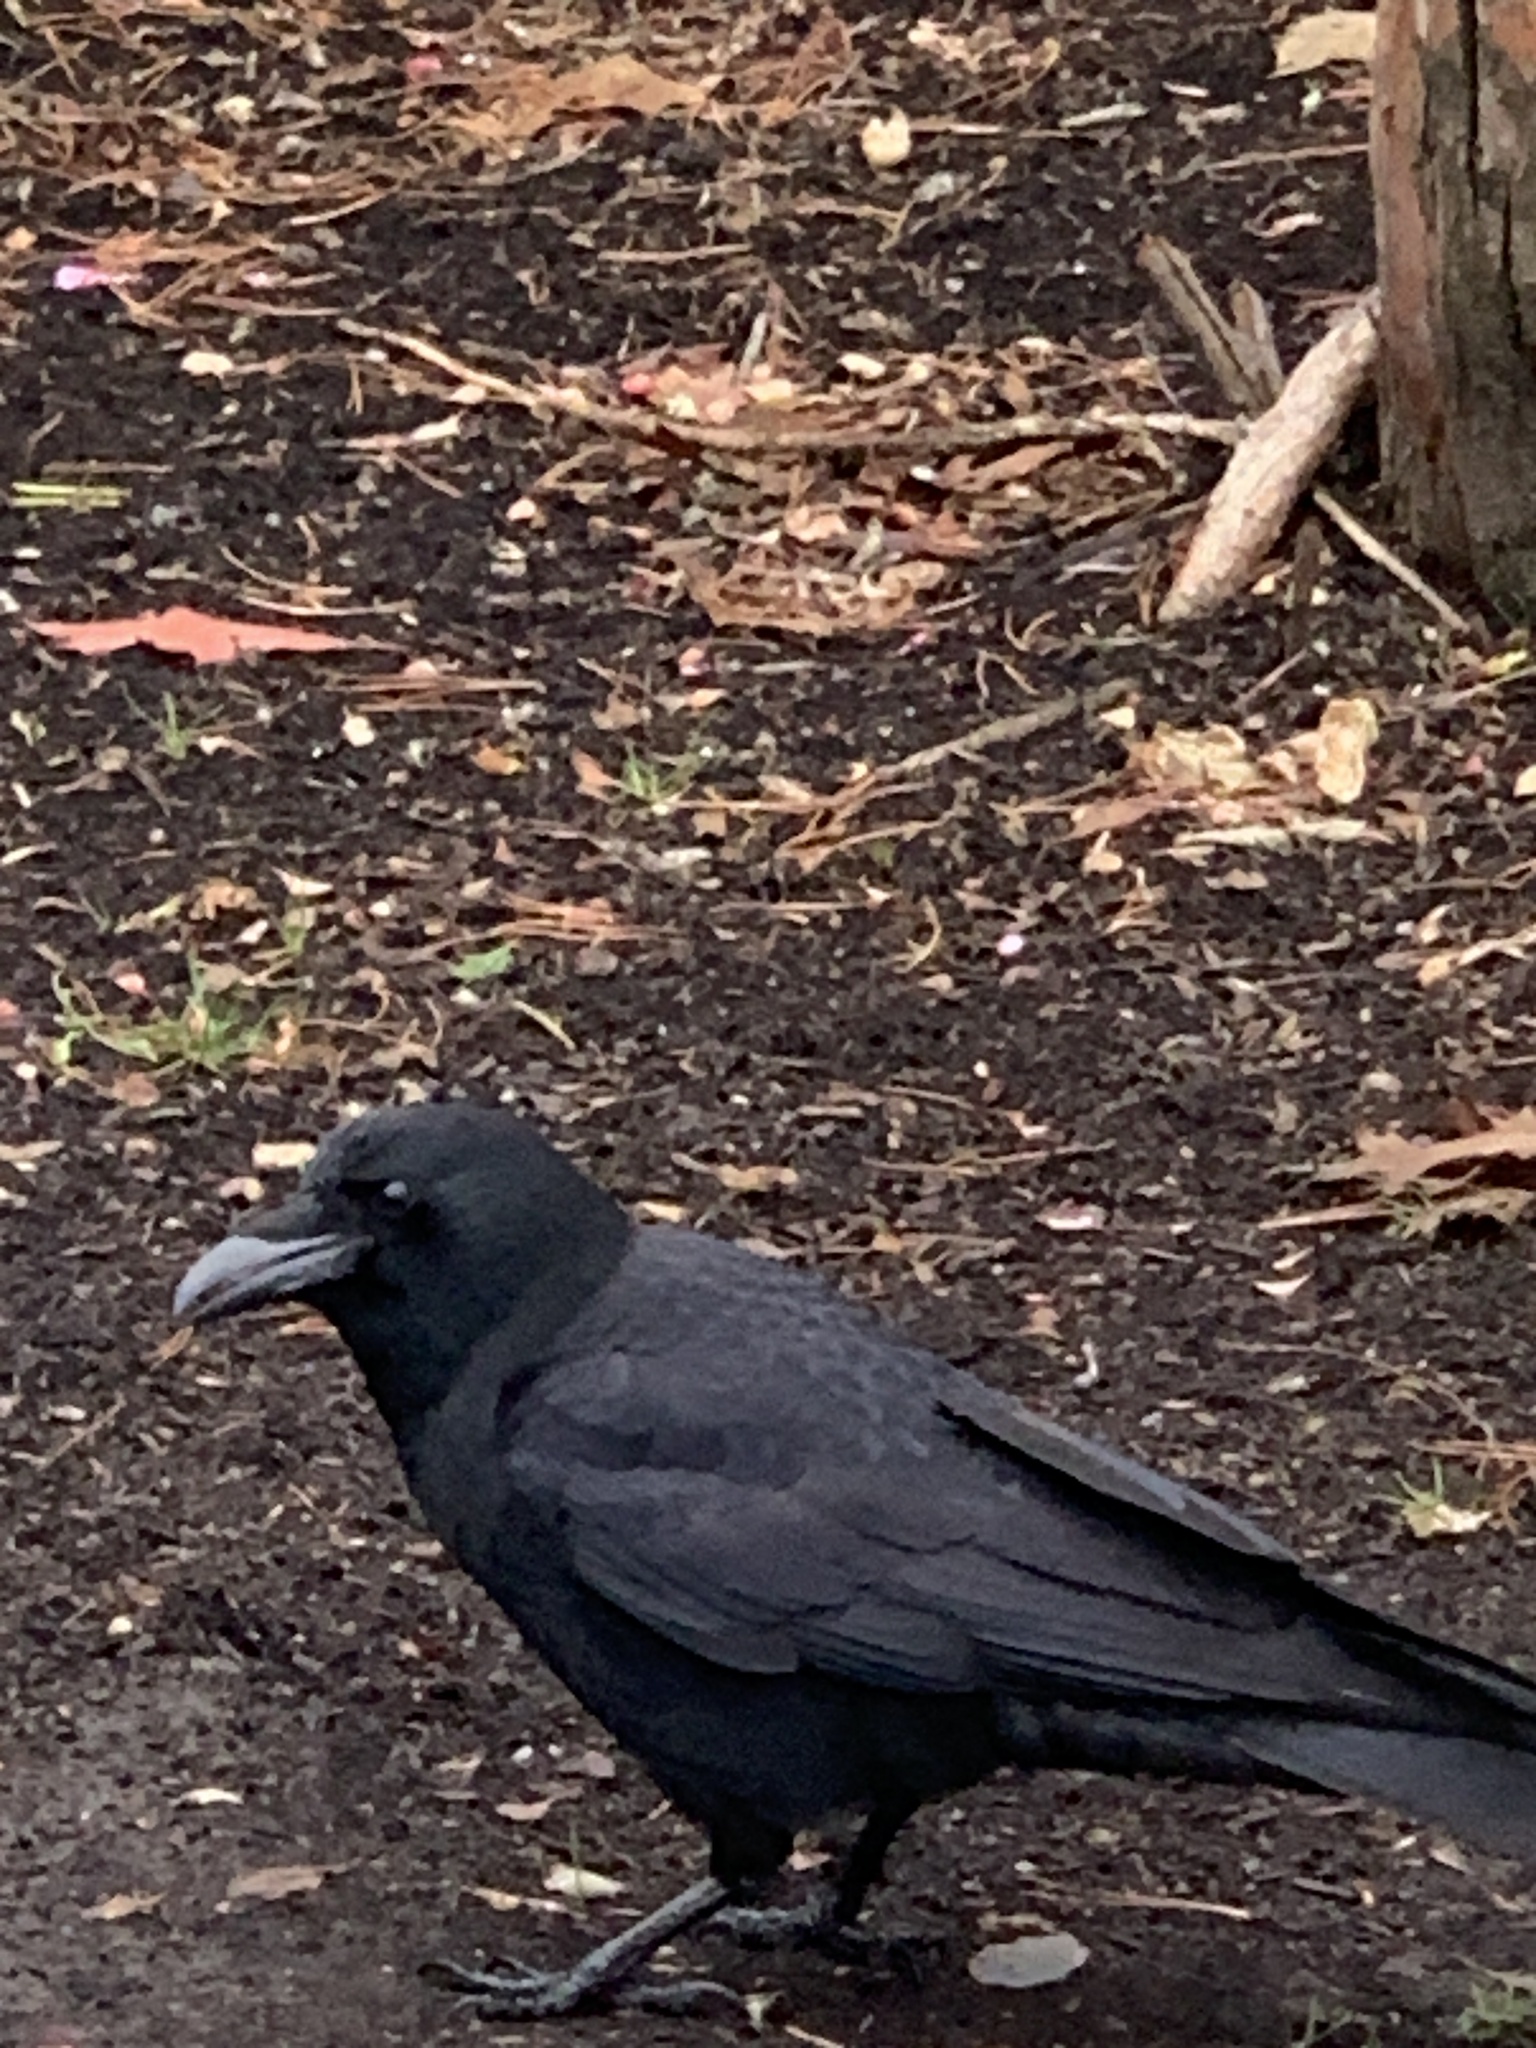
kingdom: Animalia
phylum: Chordata
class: Aves
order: Passeriformes
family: Corvidae
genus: Corvus
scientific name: Corvus brachyrhynchos
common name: American crow
